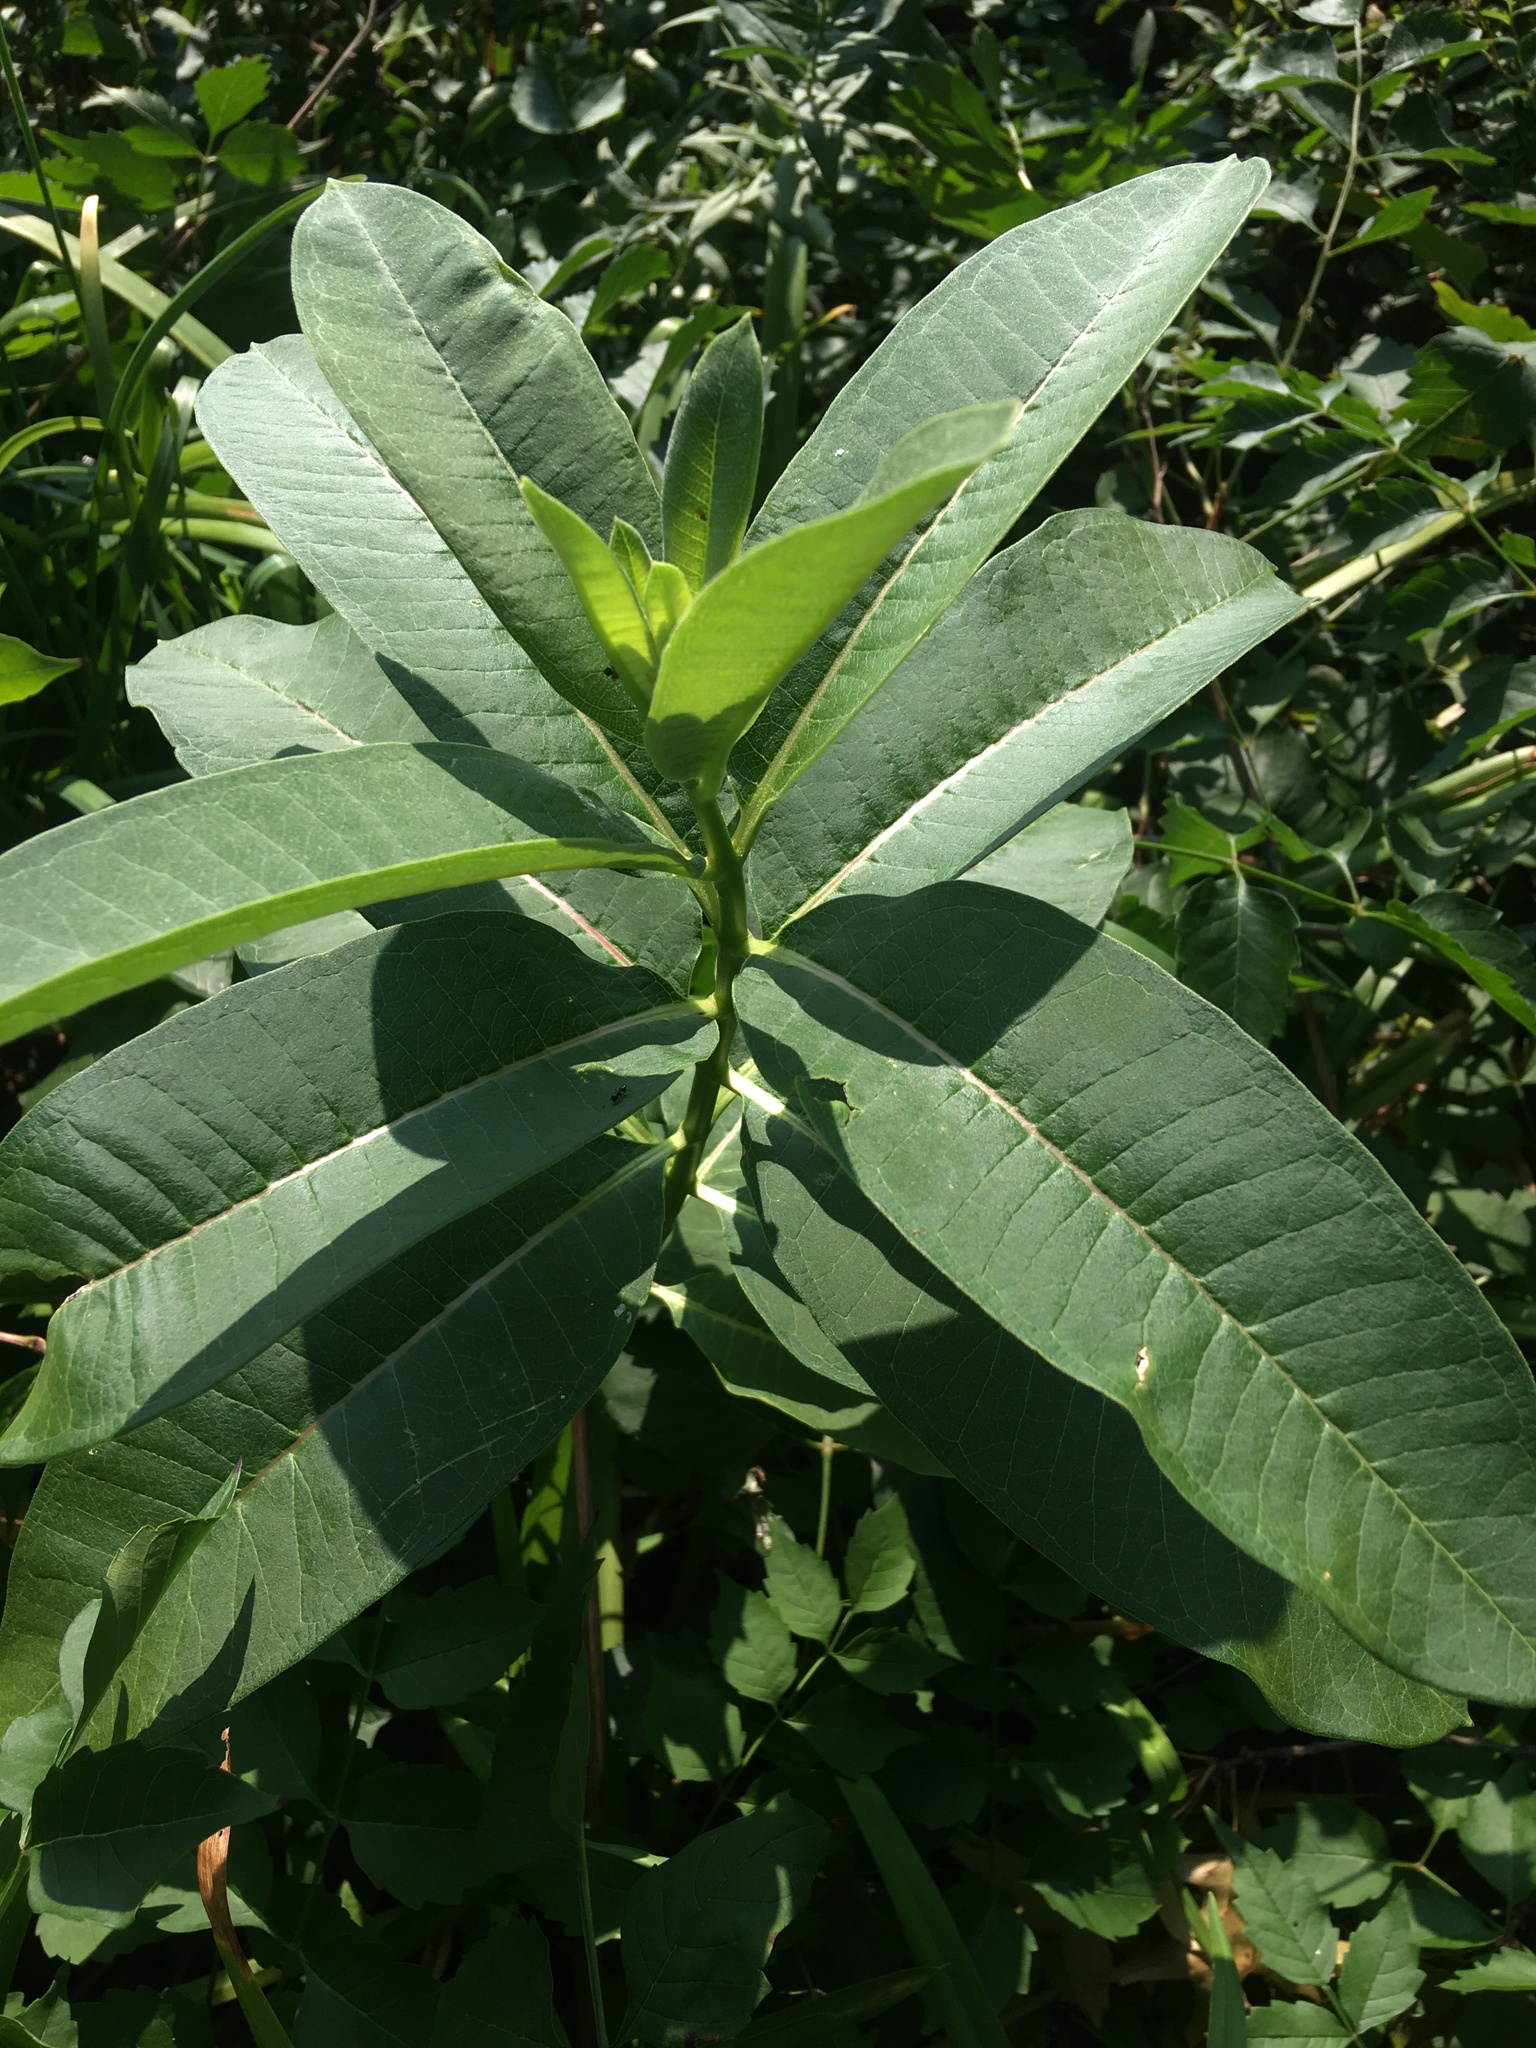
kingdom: Plantae
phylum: Tracheophyta
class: Magnoliopsida
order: Gentianales
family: Apocynaceae
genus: Asclepias
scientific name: Asclepias syriaca
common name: Common milkweed
